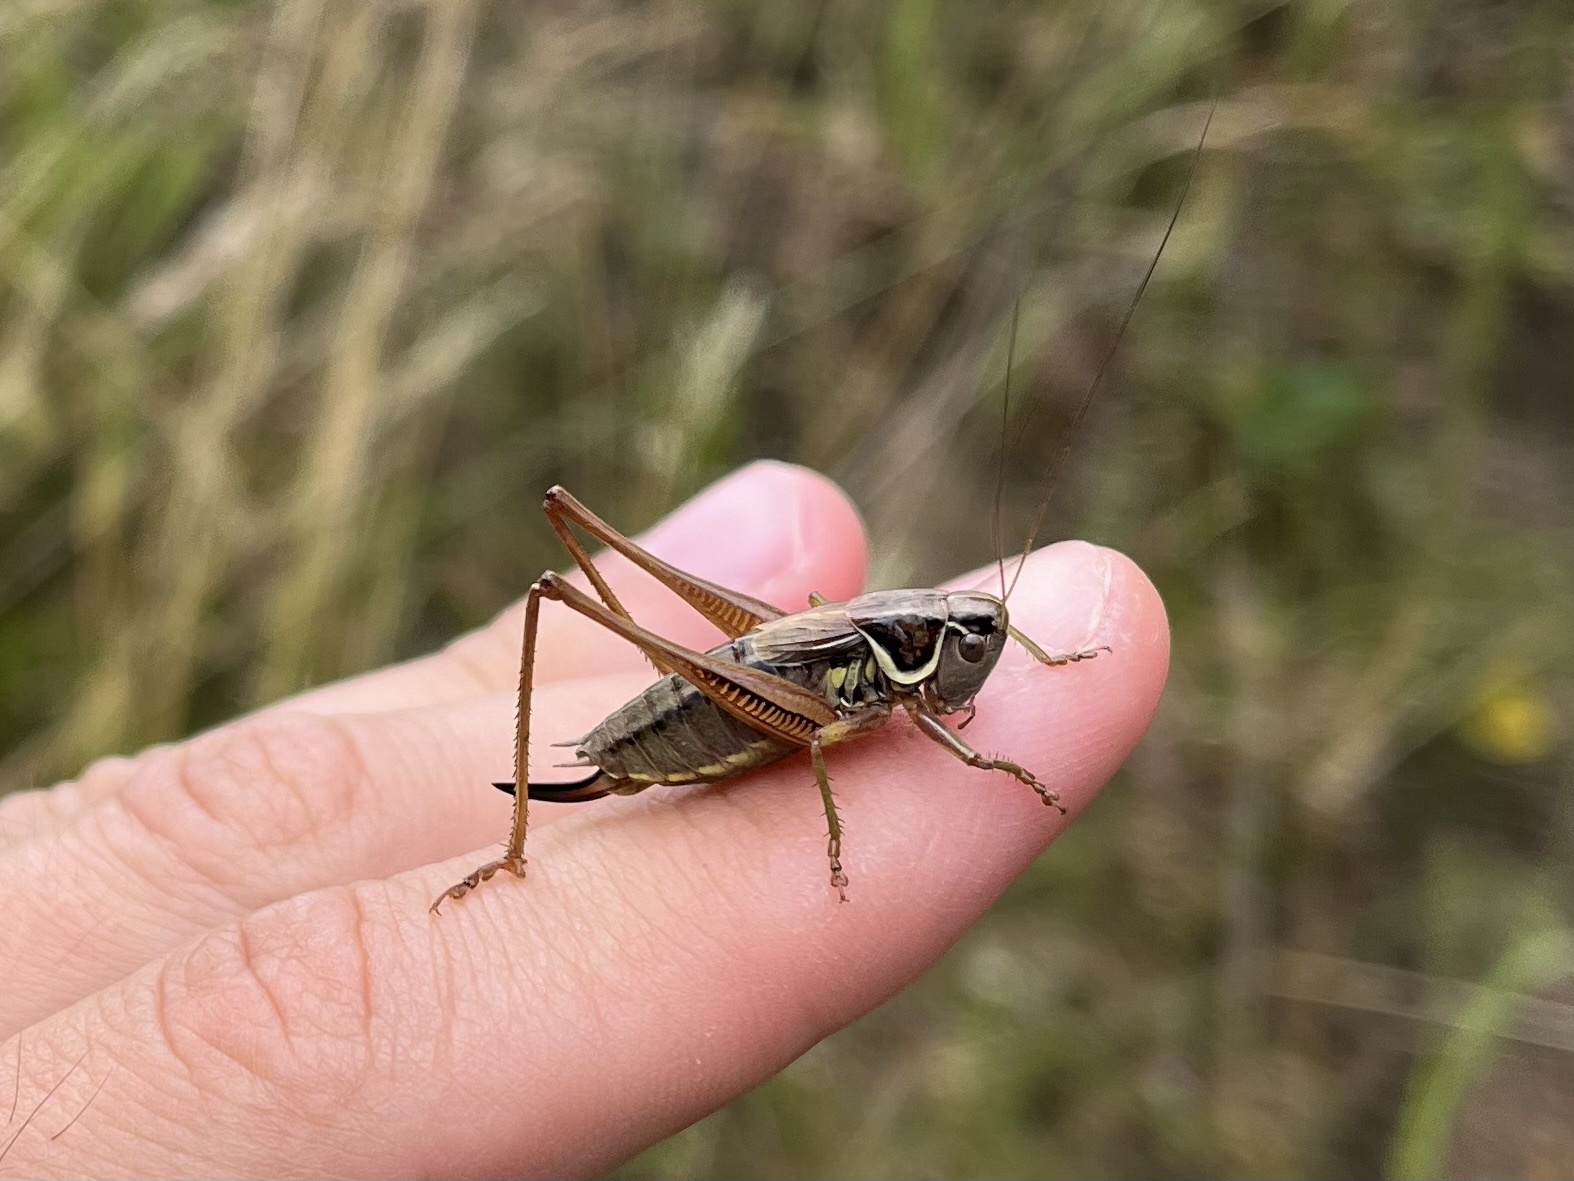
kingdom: Animalia
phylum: Arthropoda
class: Insecta
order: Orthoptera
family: Tettigoniidae
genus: Roeseliana
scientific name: Roeseliana roeselii
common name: Roesel's bush cricket
